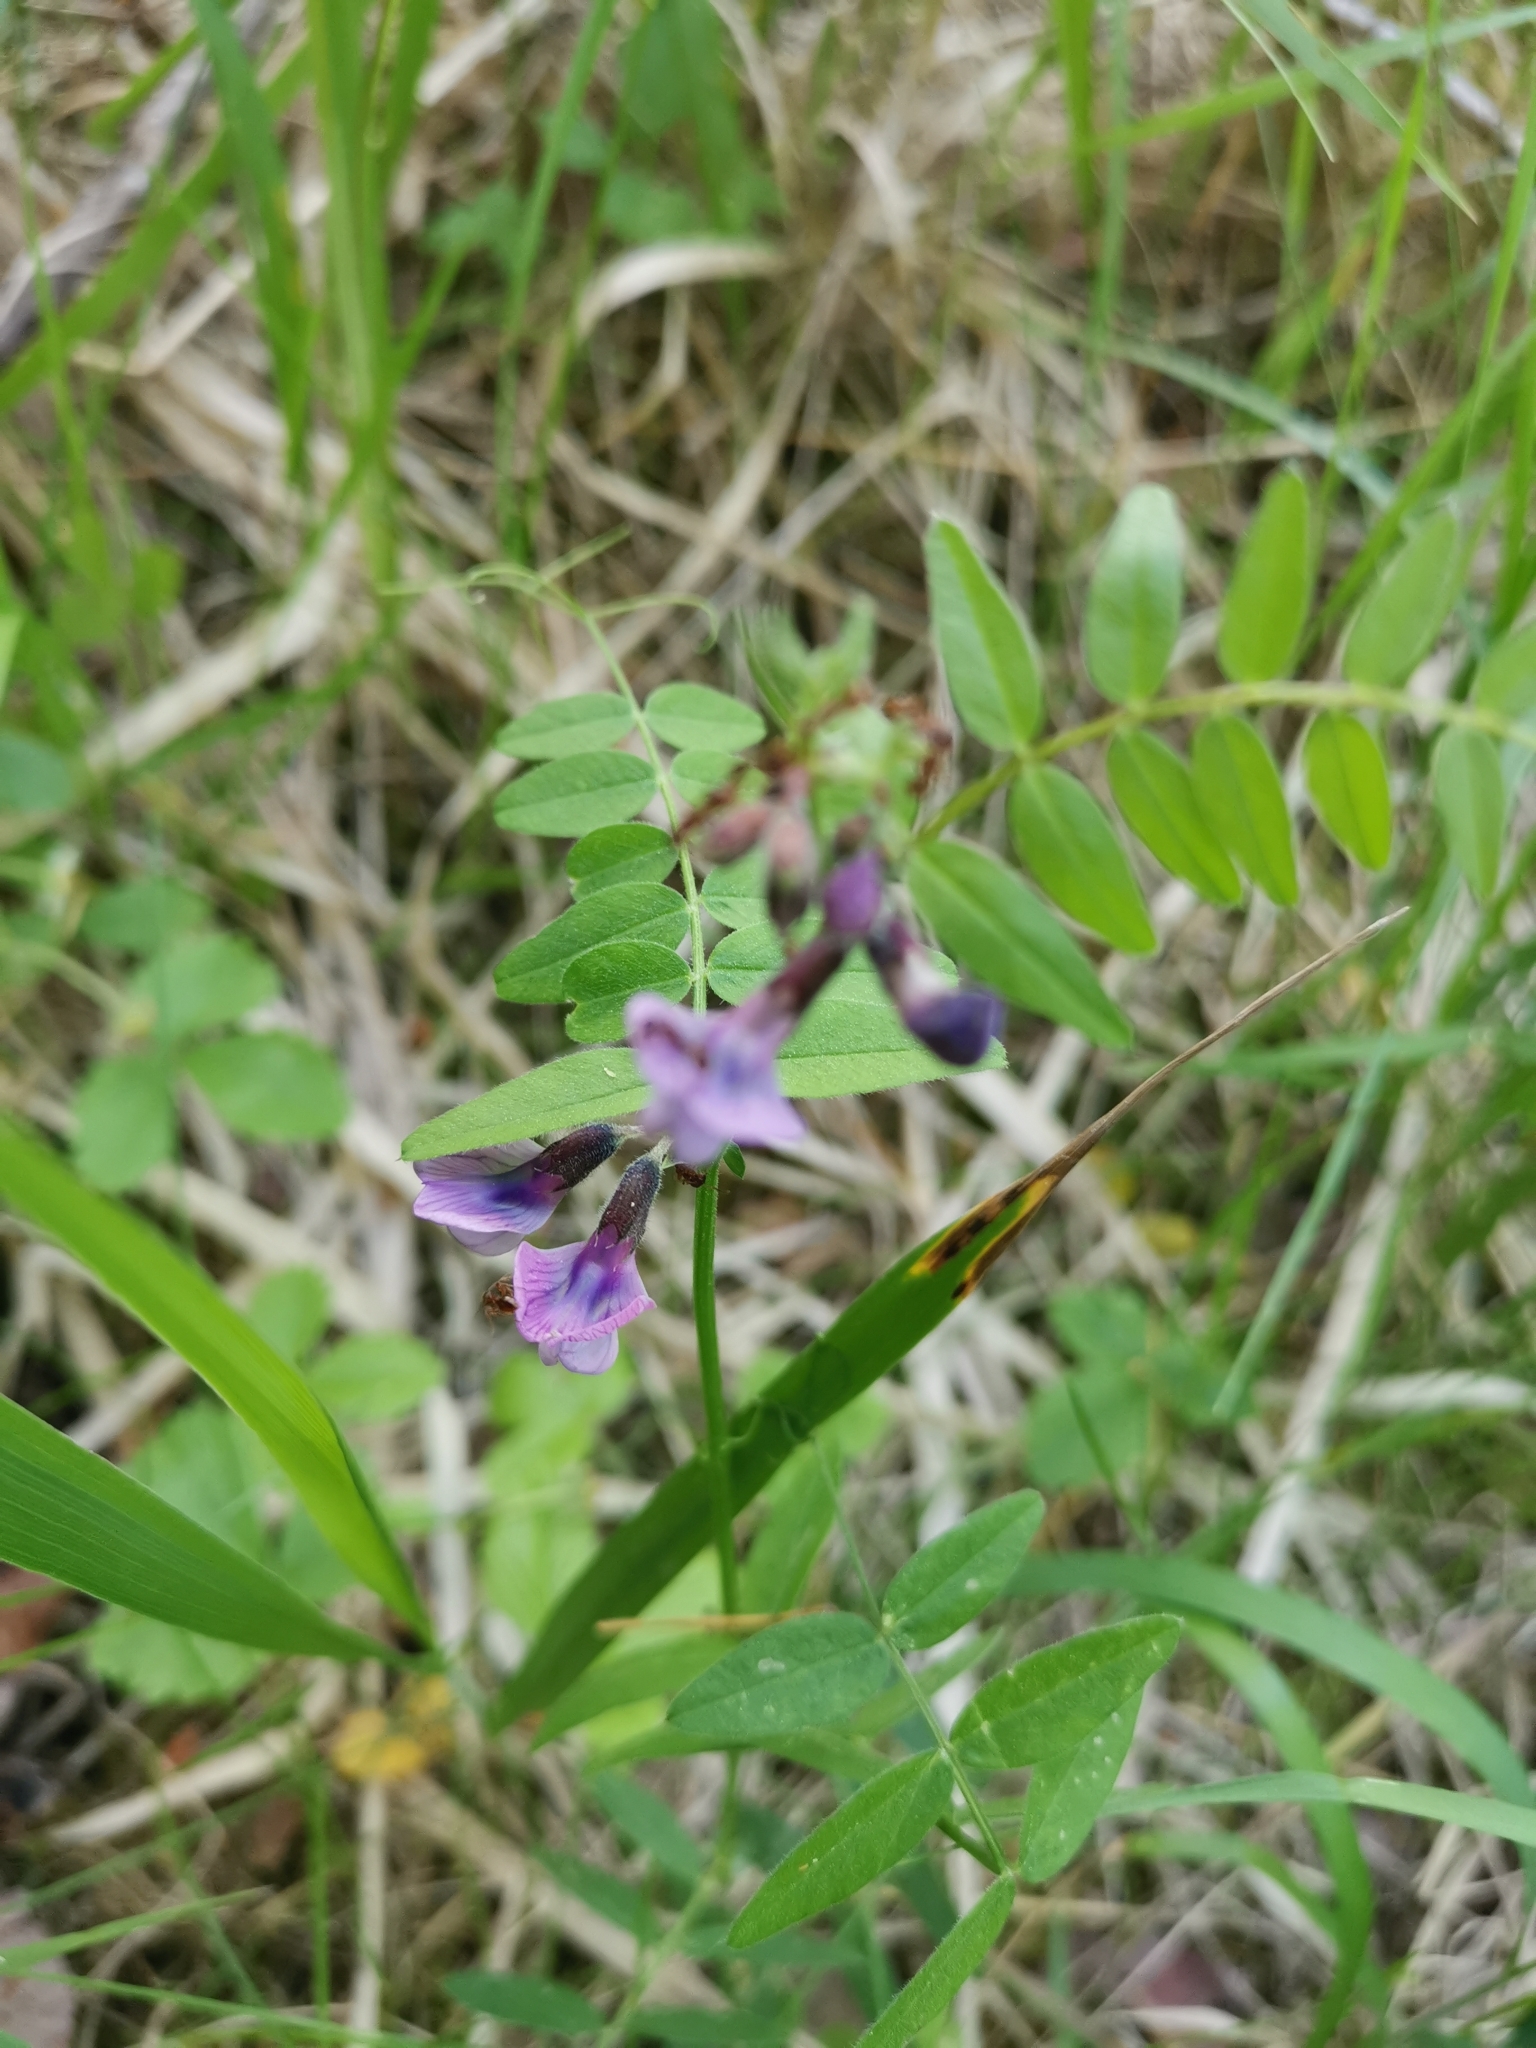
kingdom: Plantae
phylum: Tracheophyta
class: Magnoliopsida
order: Fabales
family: Fabaceae
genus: Vicia
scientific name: Vicia sepium
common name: Bush vetch
